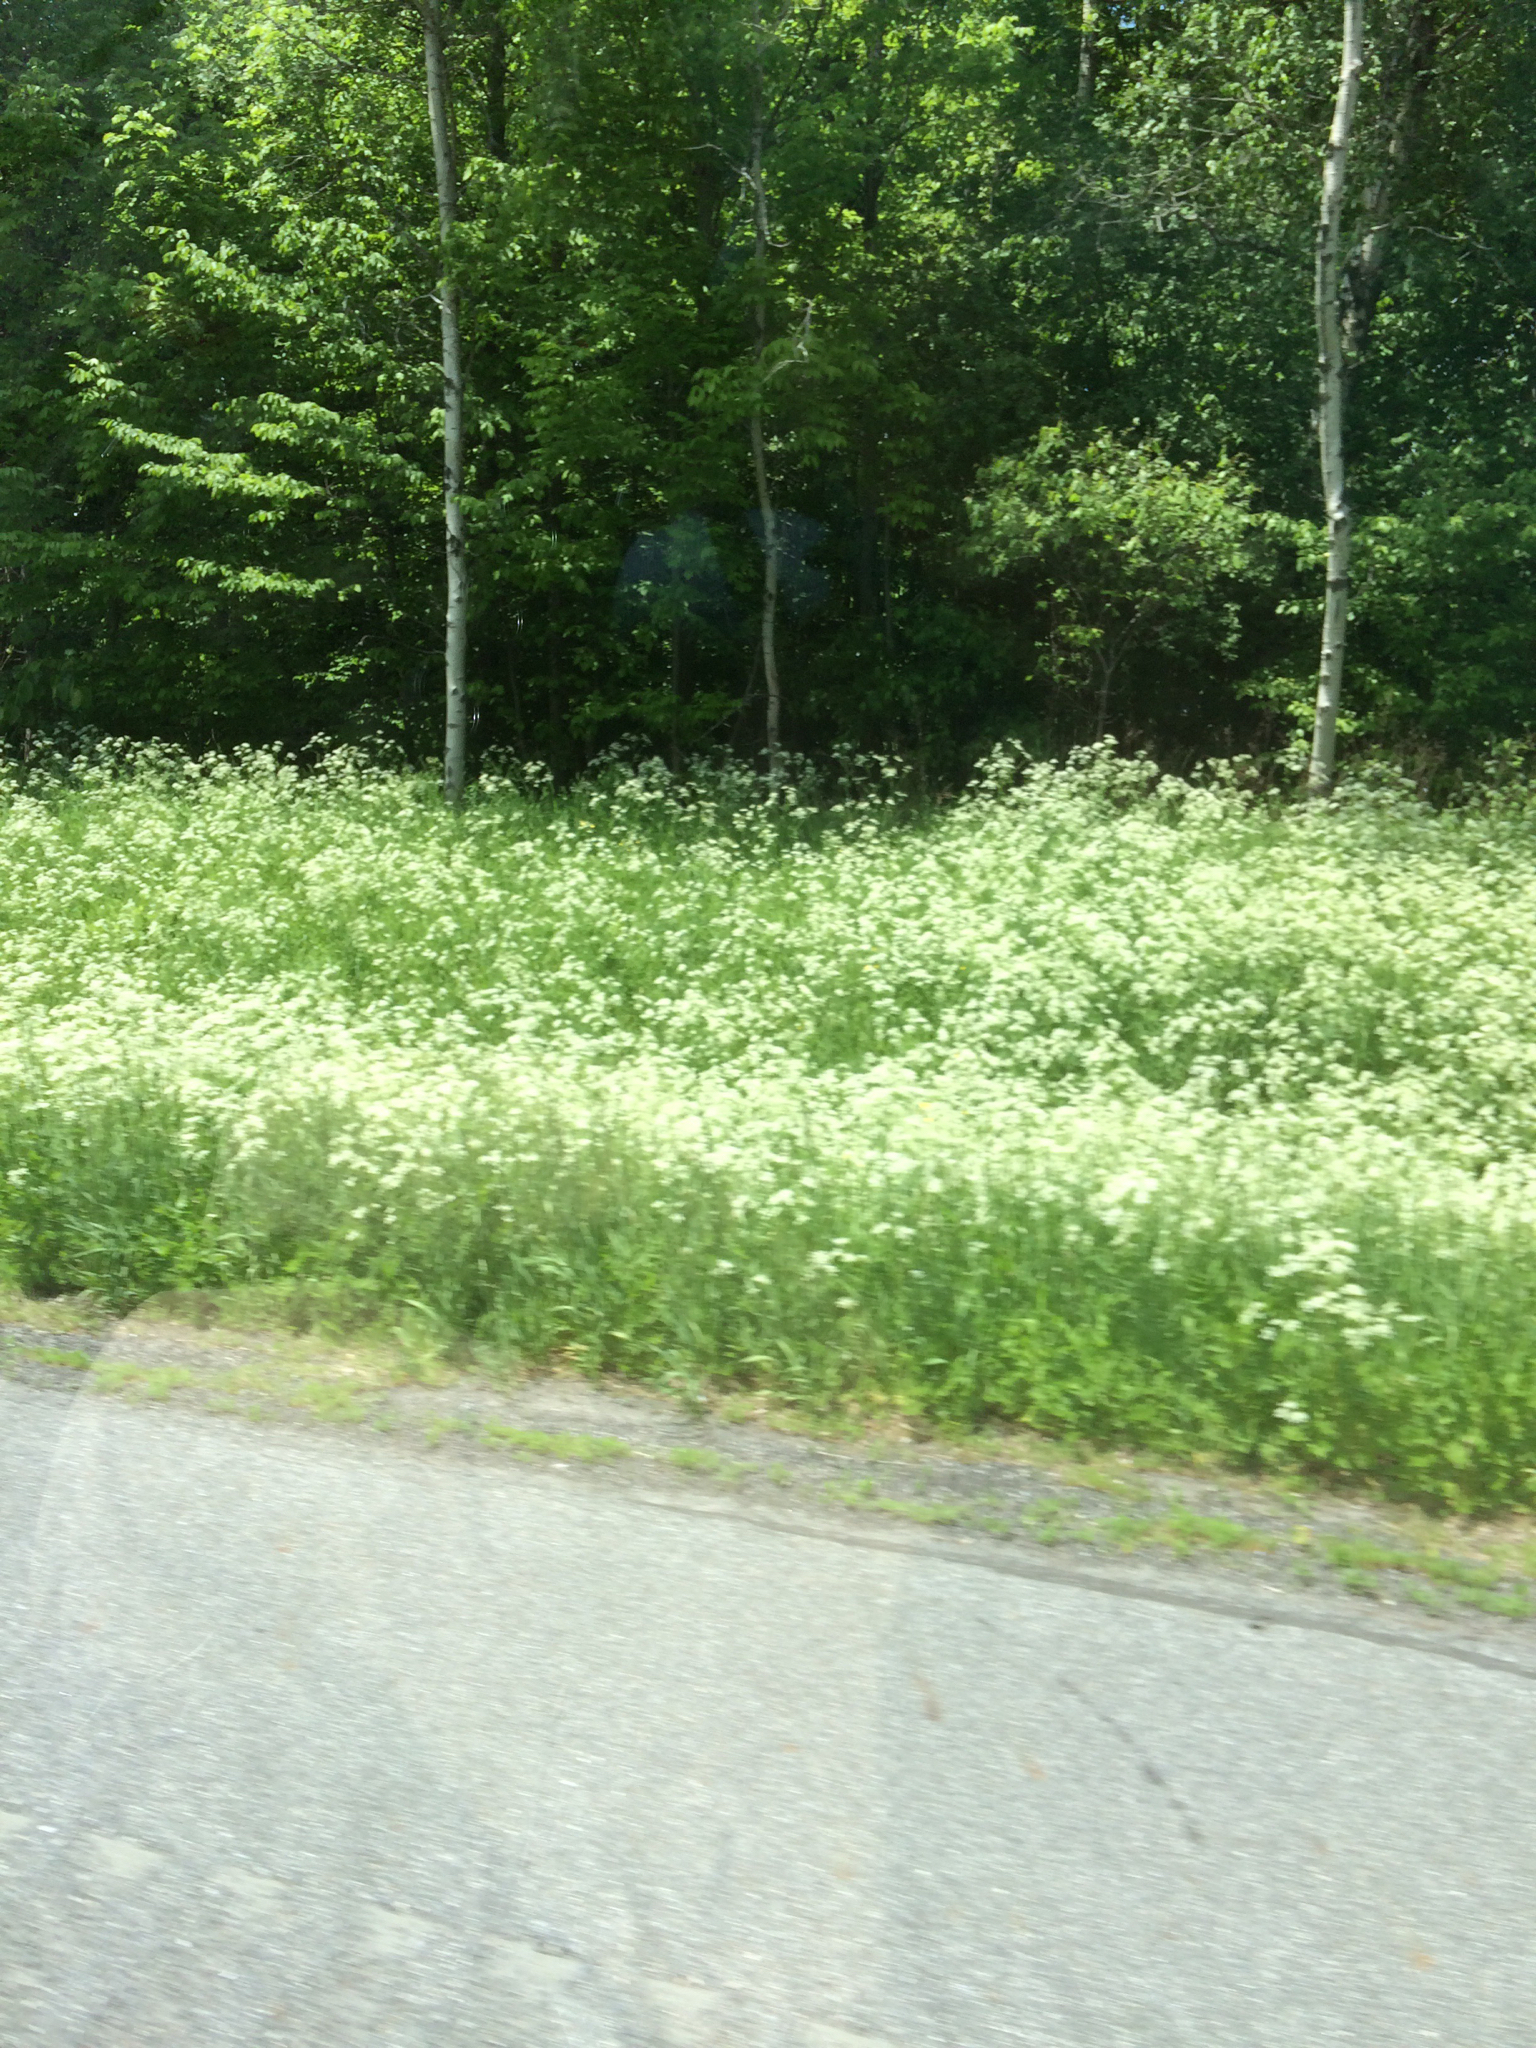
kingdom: Plantae
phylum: Tracheophyta
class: Magnoliopsida
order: Apiales
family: Apiaceae
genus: Anthriscus
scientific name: Anthriscus sylvestris
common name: Cow parsley
